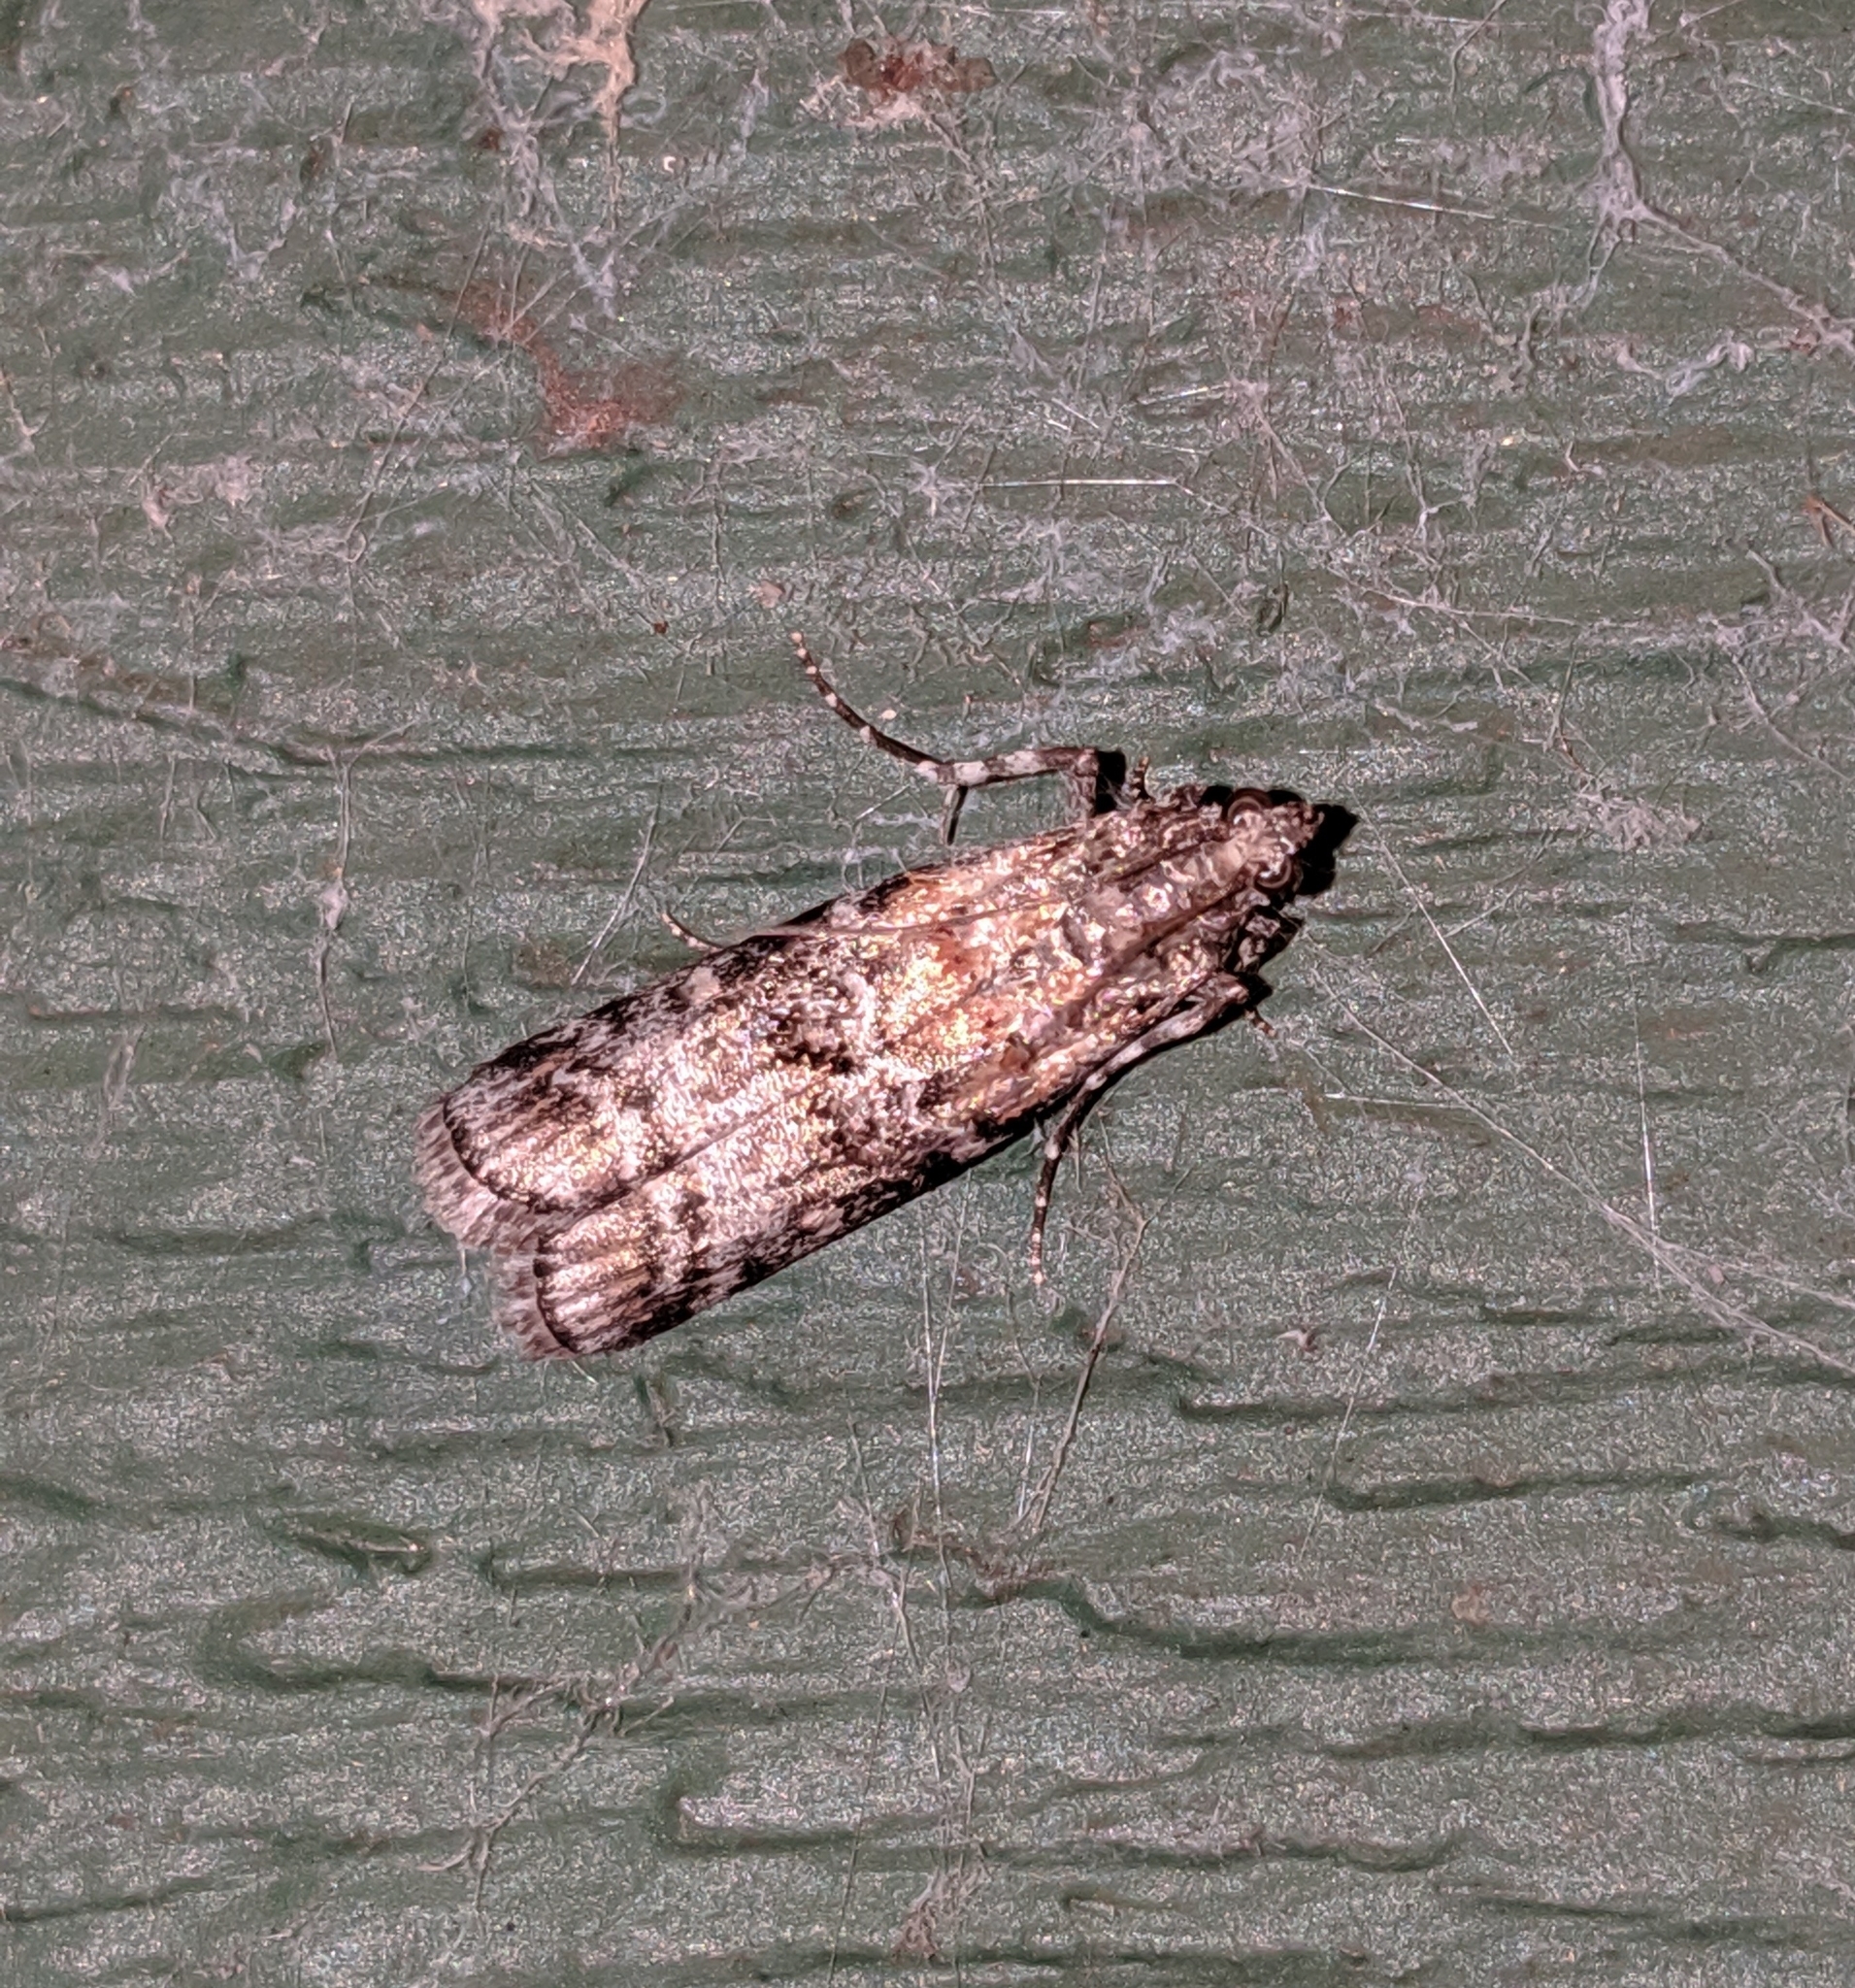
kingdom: Animalia
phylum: Arthropoda
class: Insecta
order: Lepidoptera
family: Pyralidae
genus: Dioryctria
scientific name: Dioryctria banksiella
